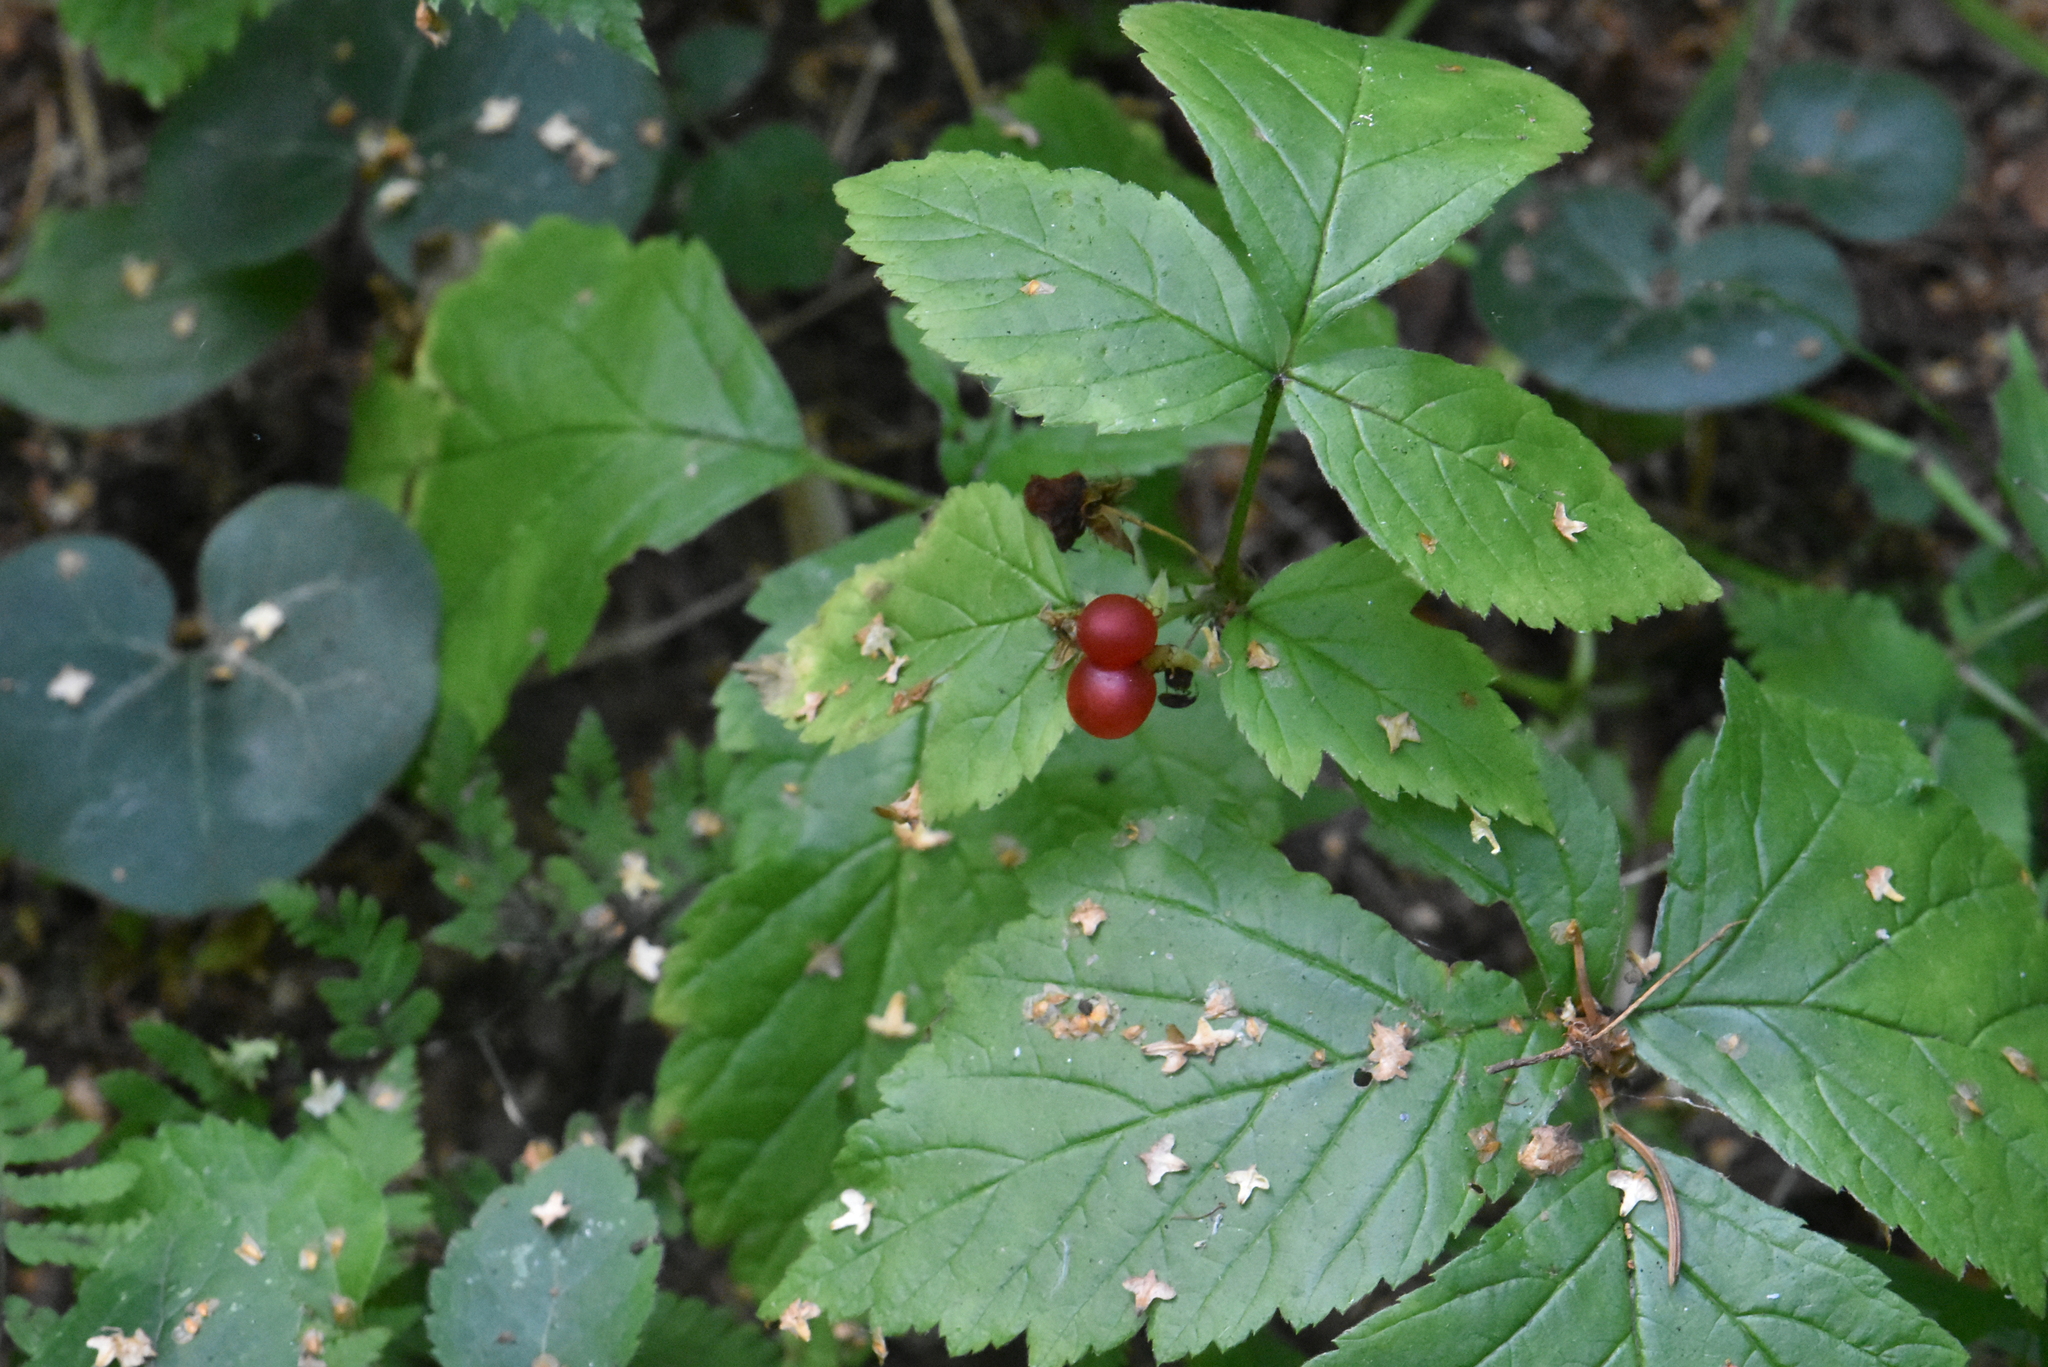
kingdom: Plantae
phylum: Tracheophyta
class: Magnoliopsida
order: Rosales
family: Rosaceae
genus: Rubus
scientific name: Rubus saxatilis
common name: Stone bramble
